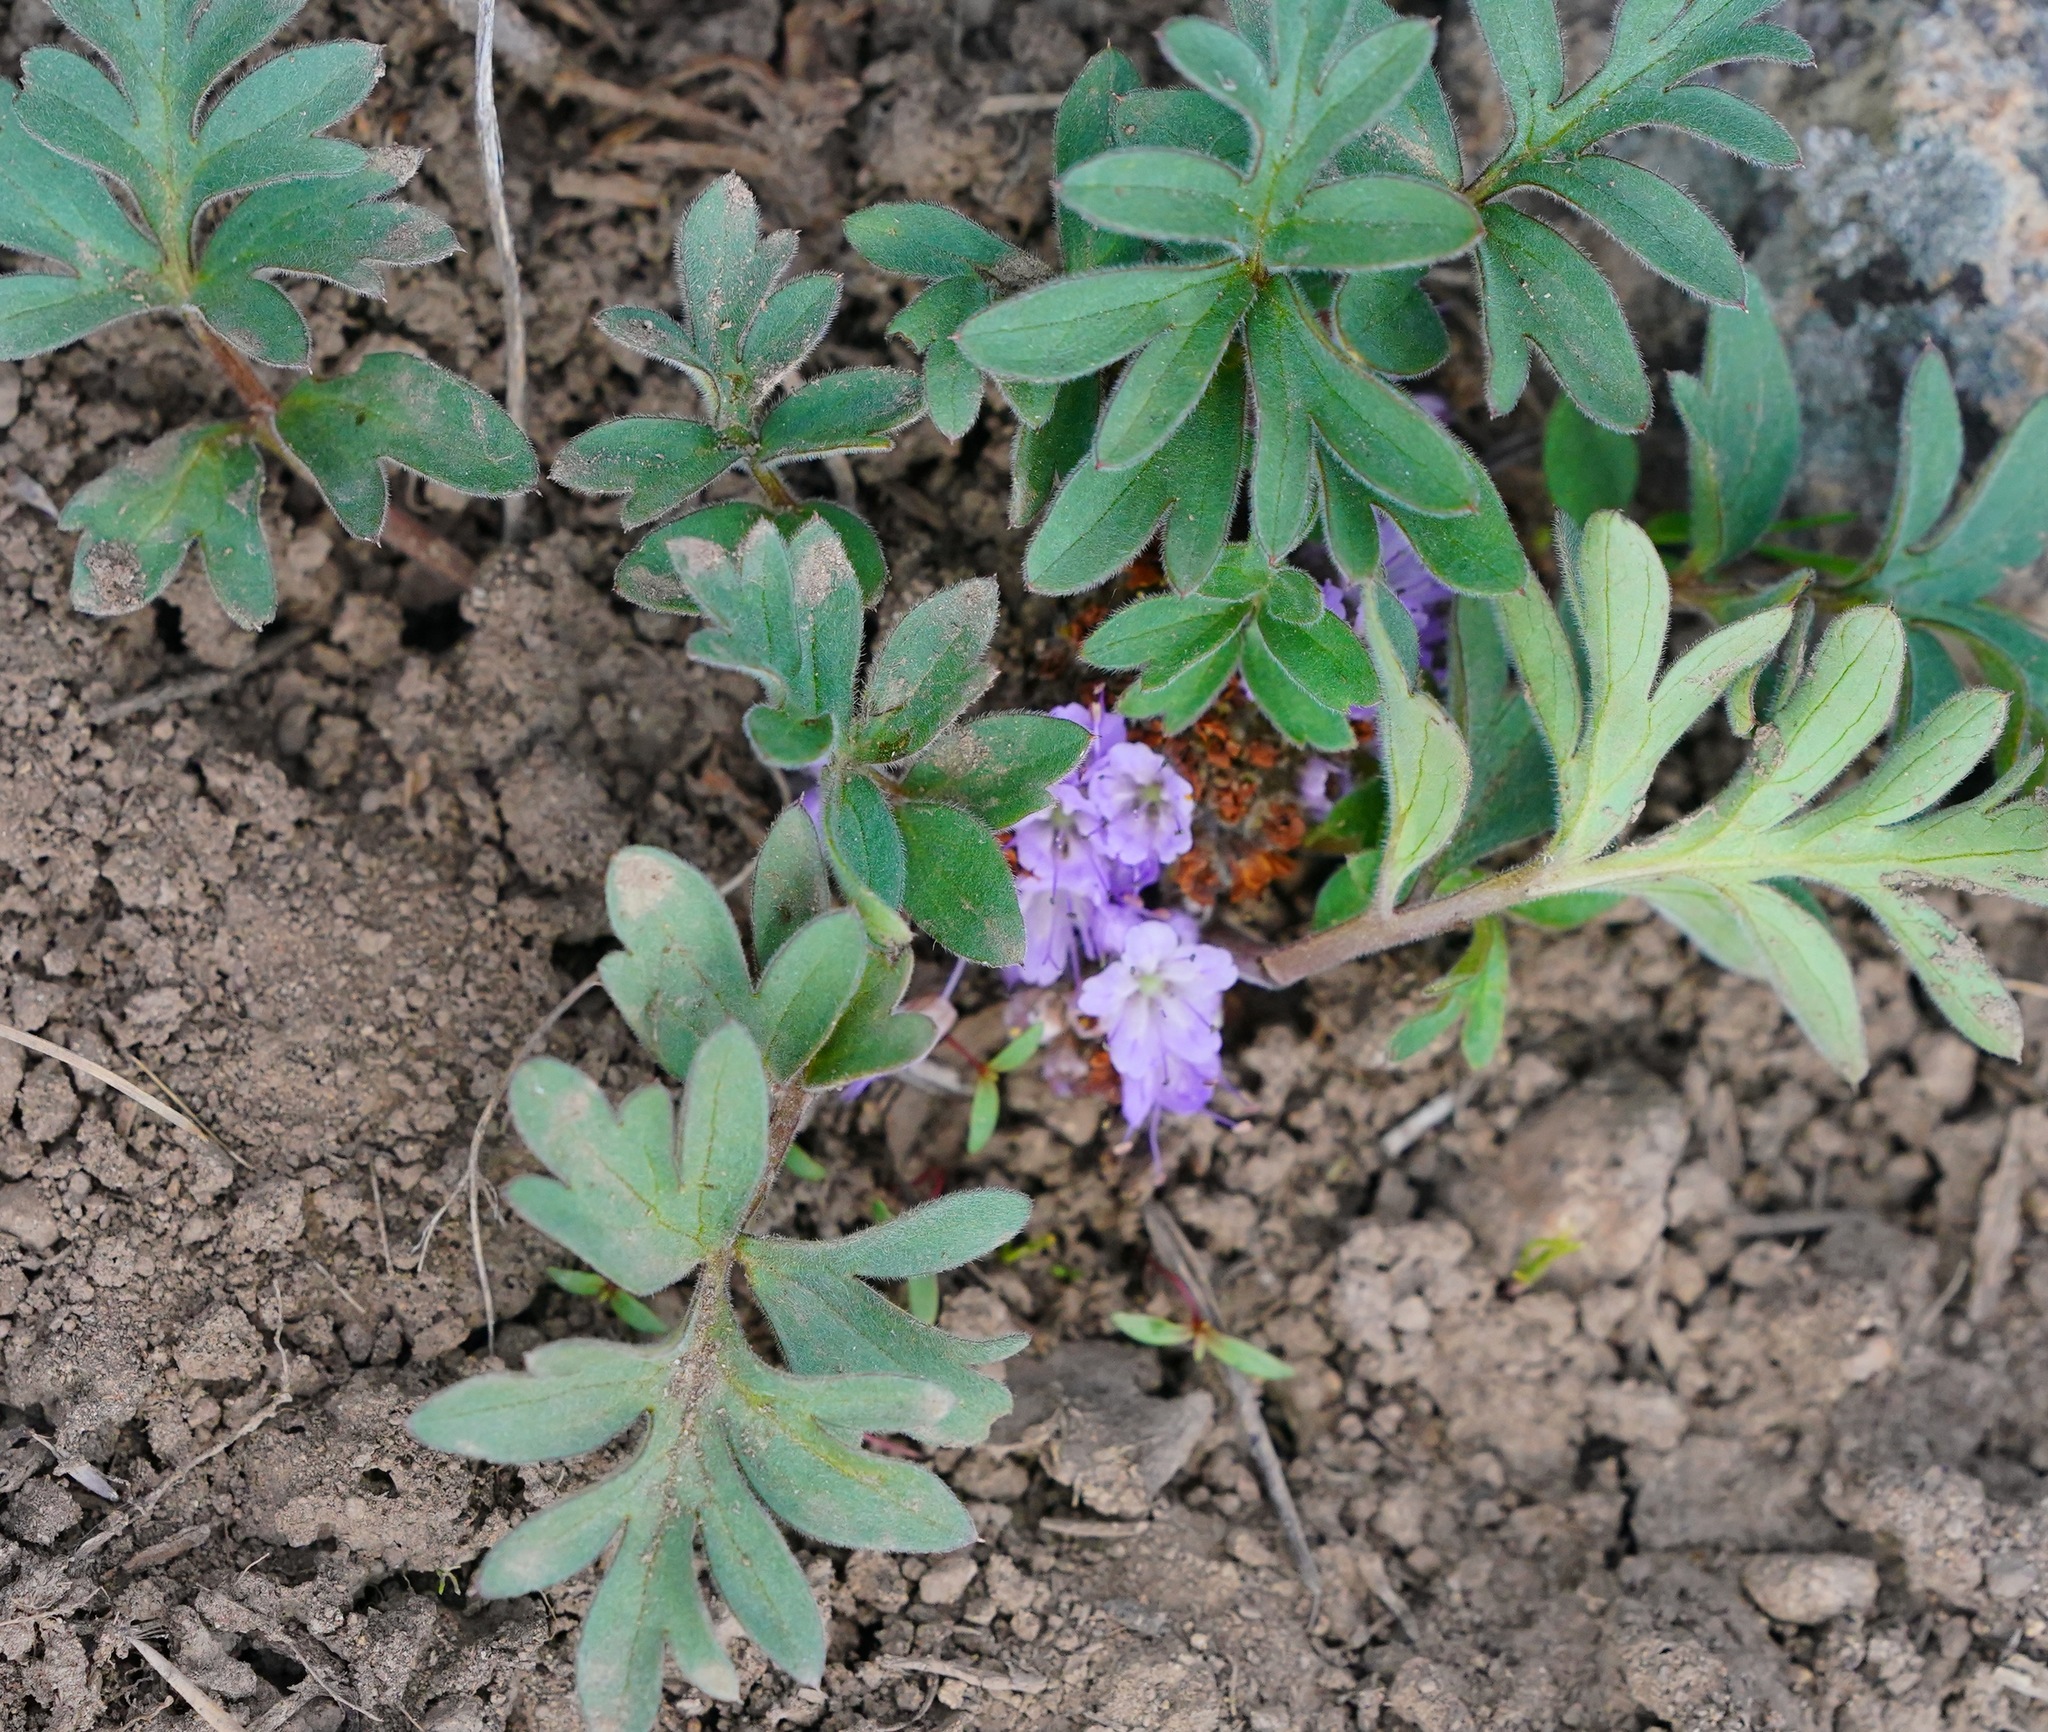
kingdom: Plantae
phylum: Tracheophyta
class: Magnoliopsida
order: Boraginales
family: Hydrophyllaceae
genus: Hydrophyllum
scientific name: Hydrophyllum alpestre
